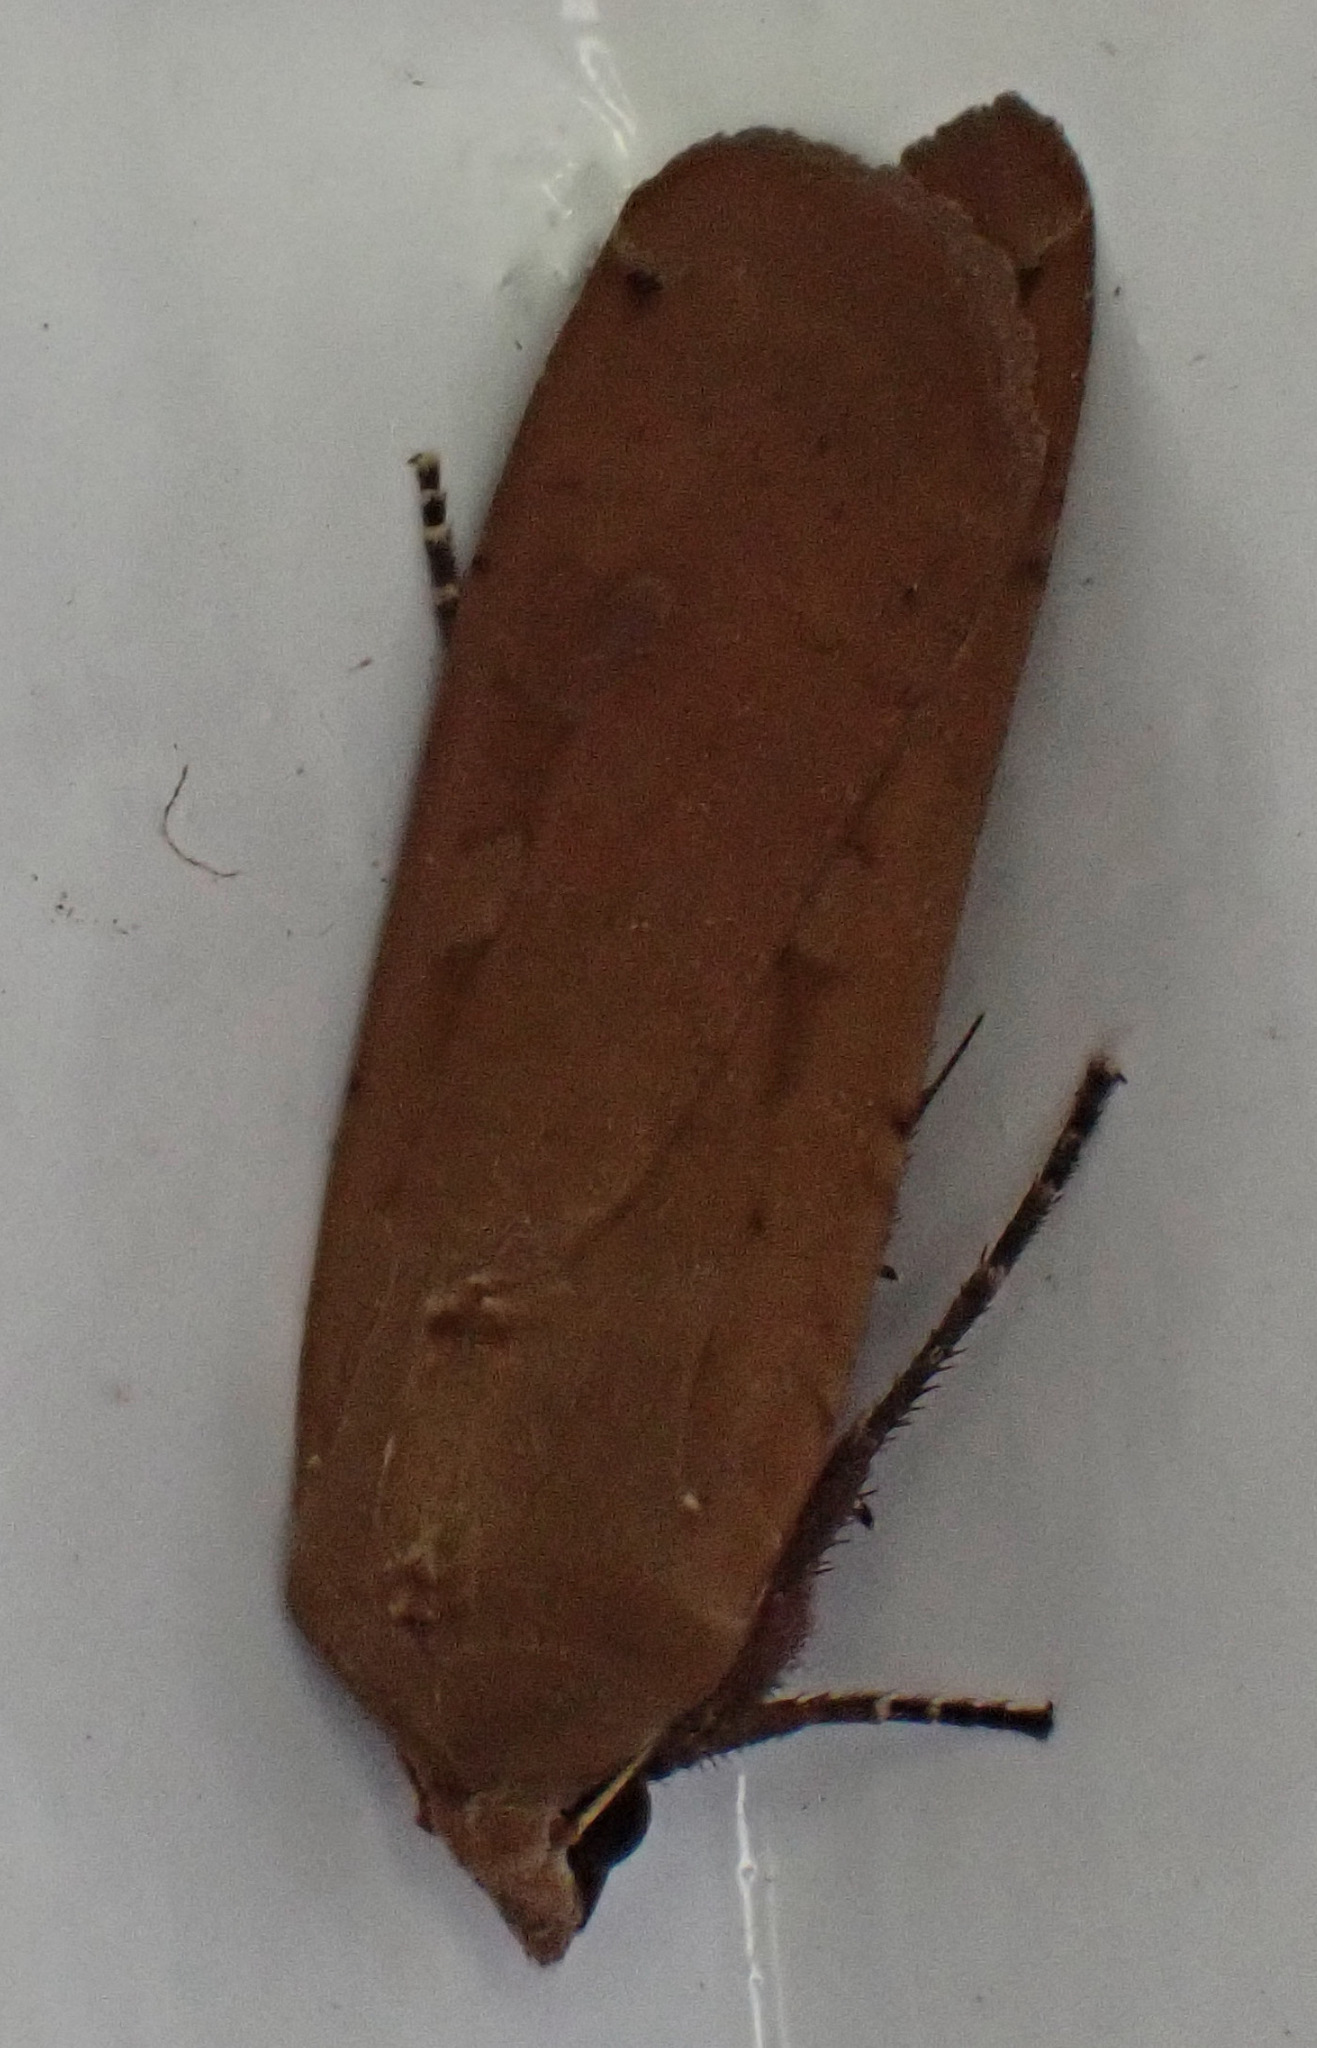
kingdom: Animalia
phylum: Arthropoda
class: Insecta
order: Lepidoptera
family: Noctuidae
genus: Noctua
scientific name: Noctua pronuba
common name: Large yellow underwing
